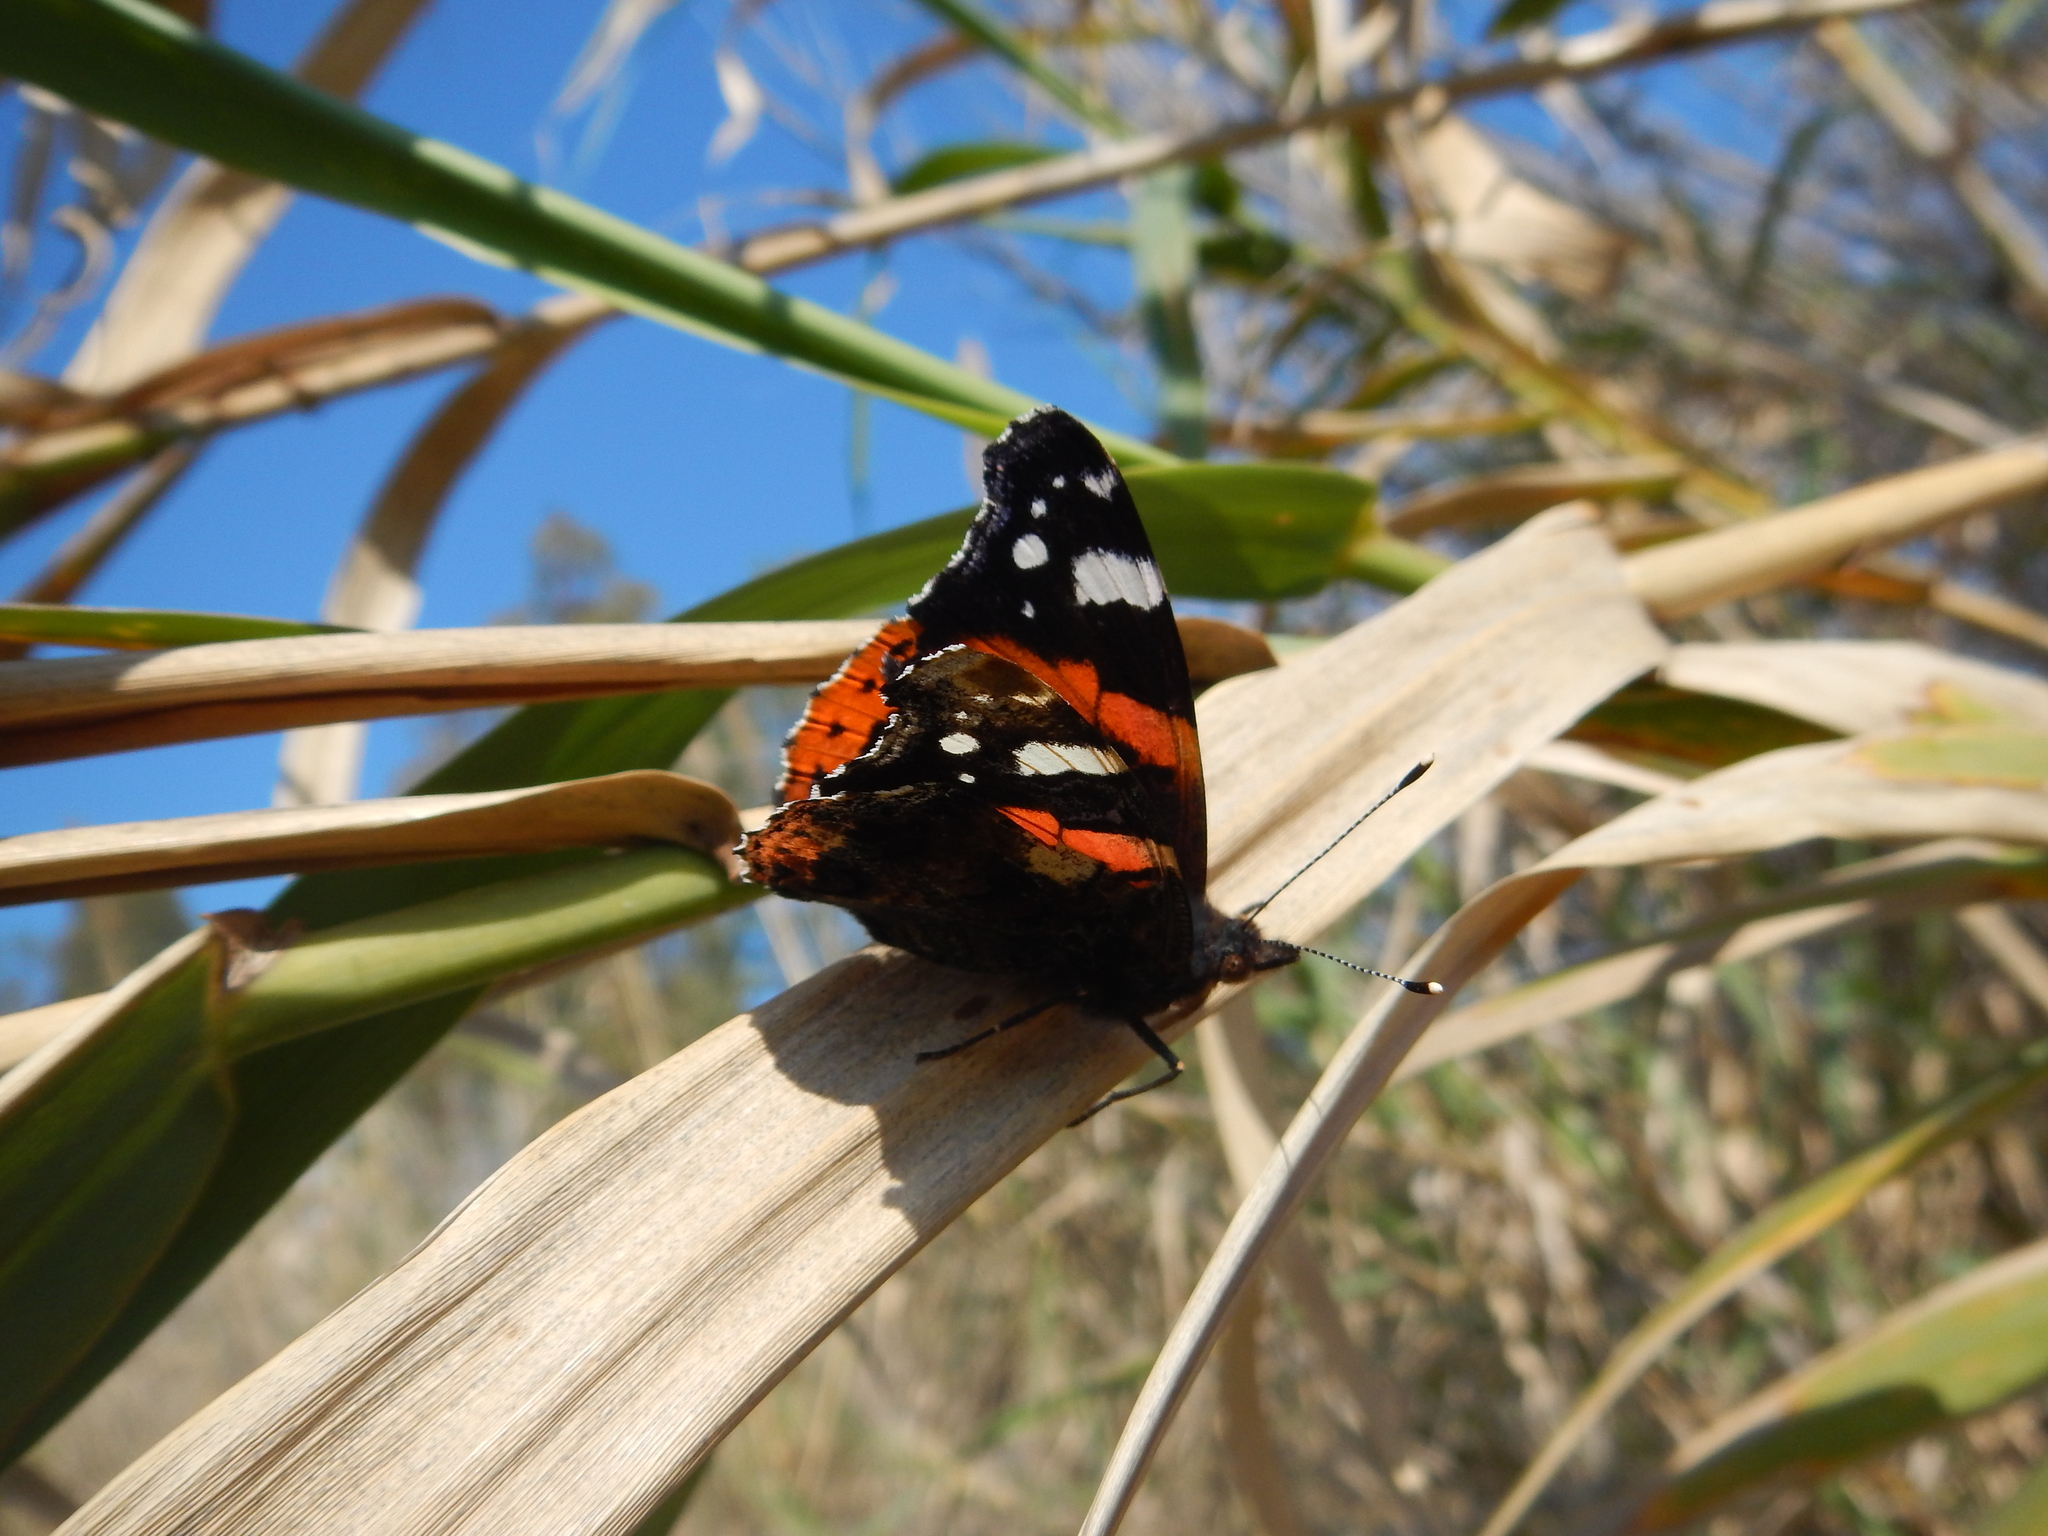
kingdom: Animalia
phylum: Arthropoda
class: Insecta
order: Lepidoptera
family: Nymphalidae
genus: Vanessa
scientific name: Vanessa atalanta
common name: Red admiral
